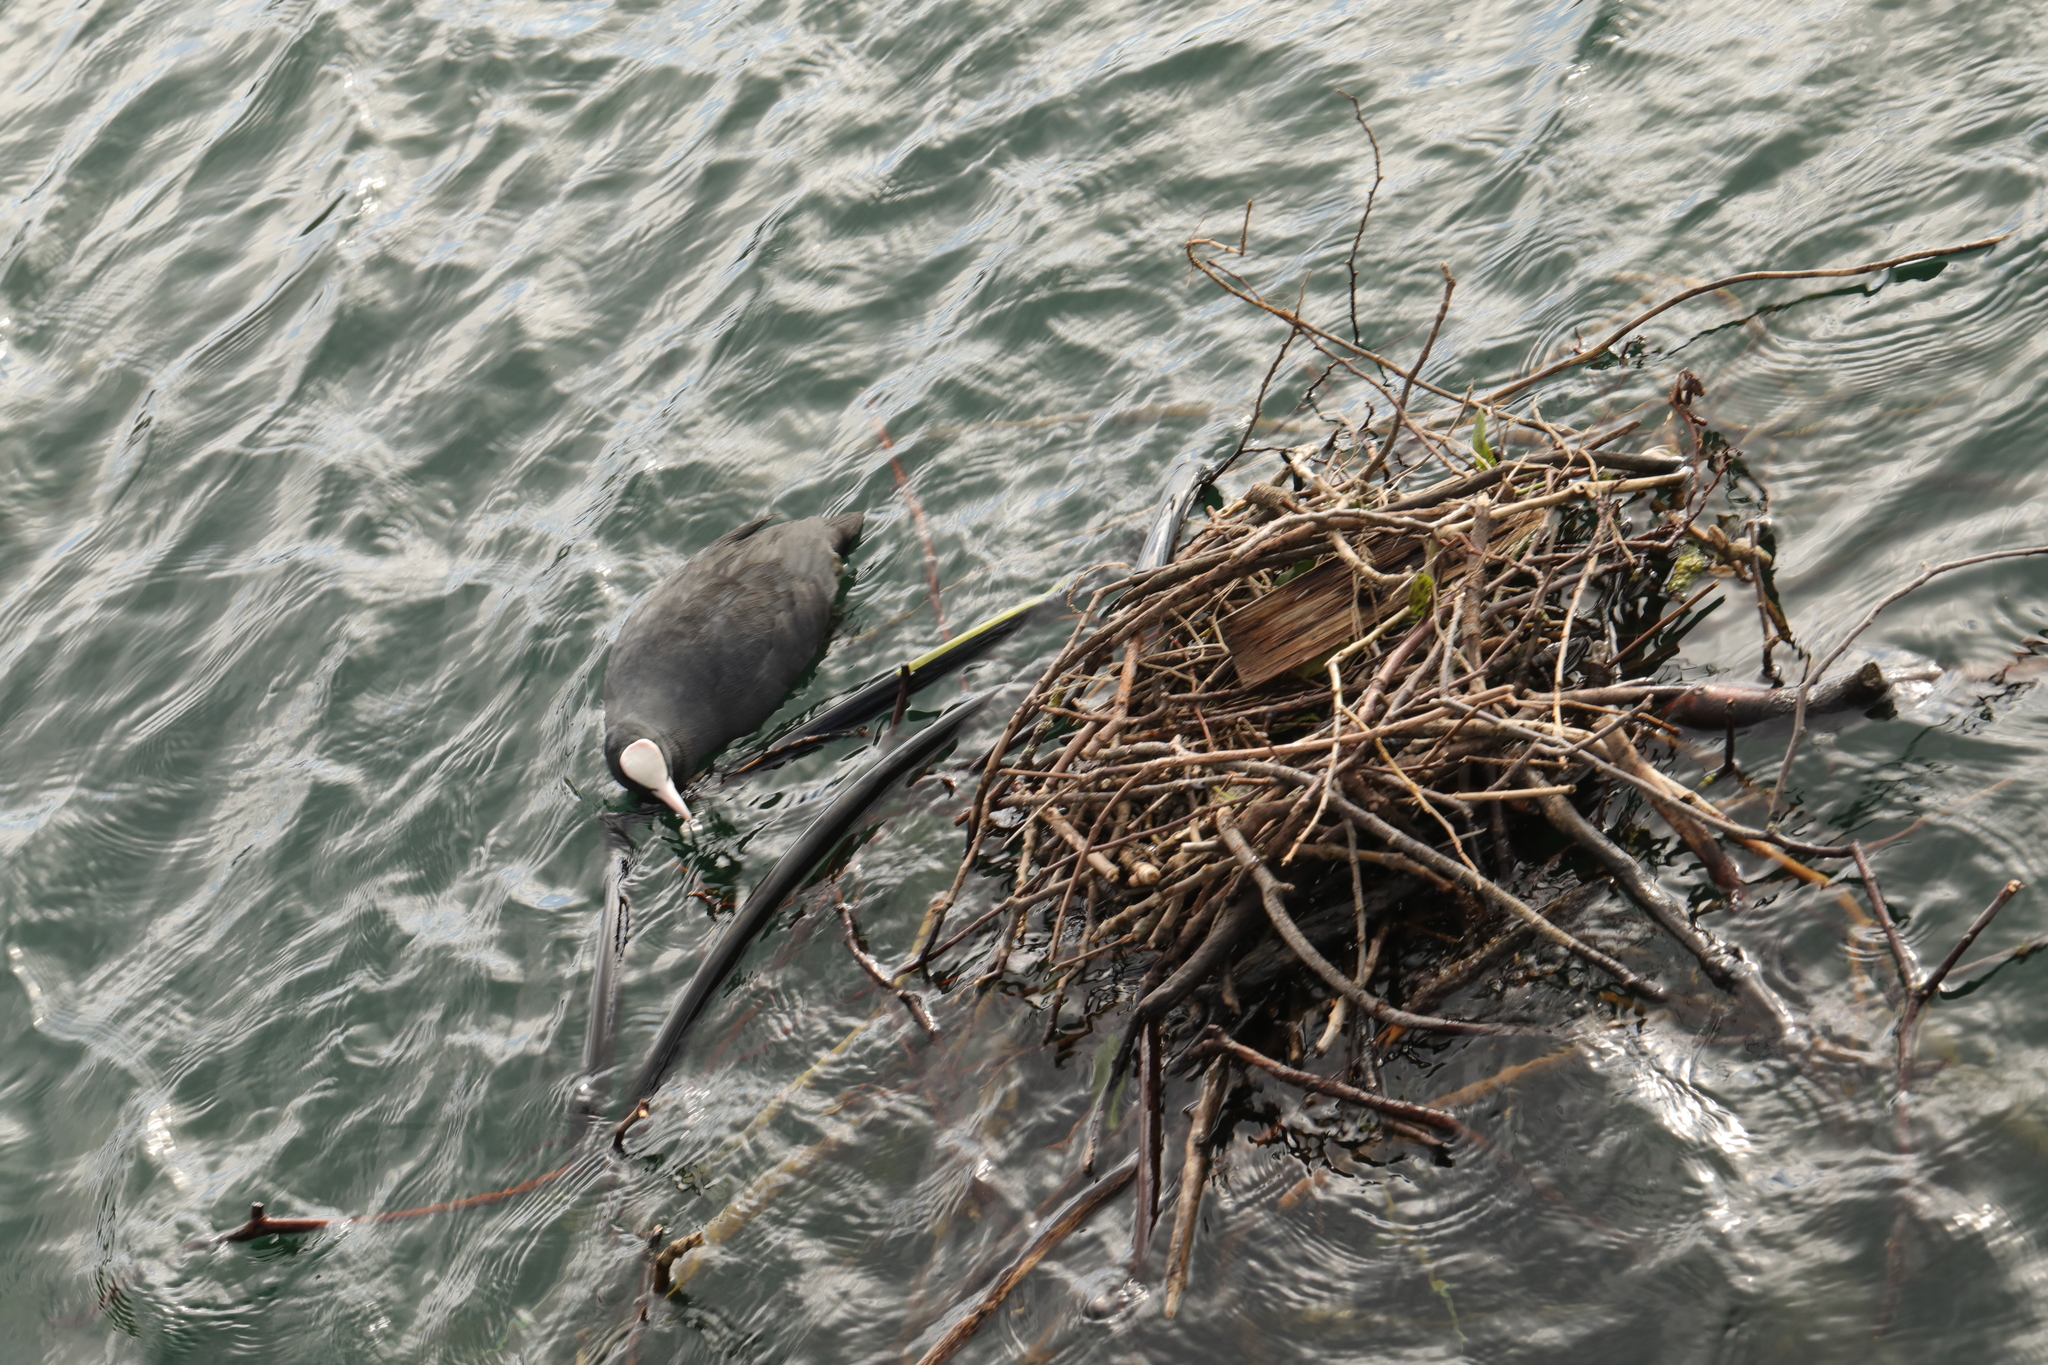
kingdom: Animalia
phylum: Chordata
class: Aves
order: Gruiformes
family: Rallidae
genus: Fulica
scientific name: Fulica atra
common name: Eurasian coot
